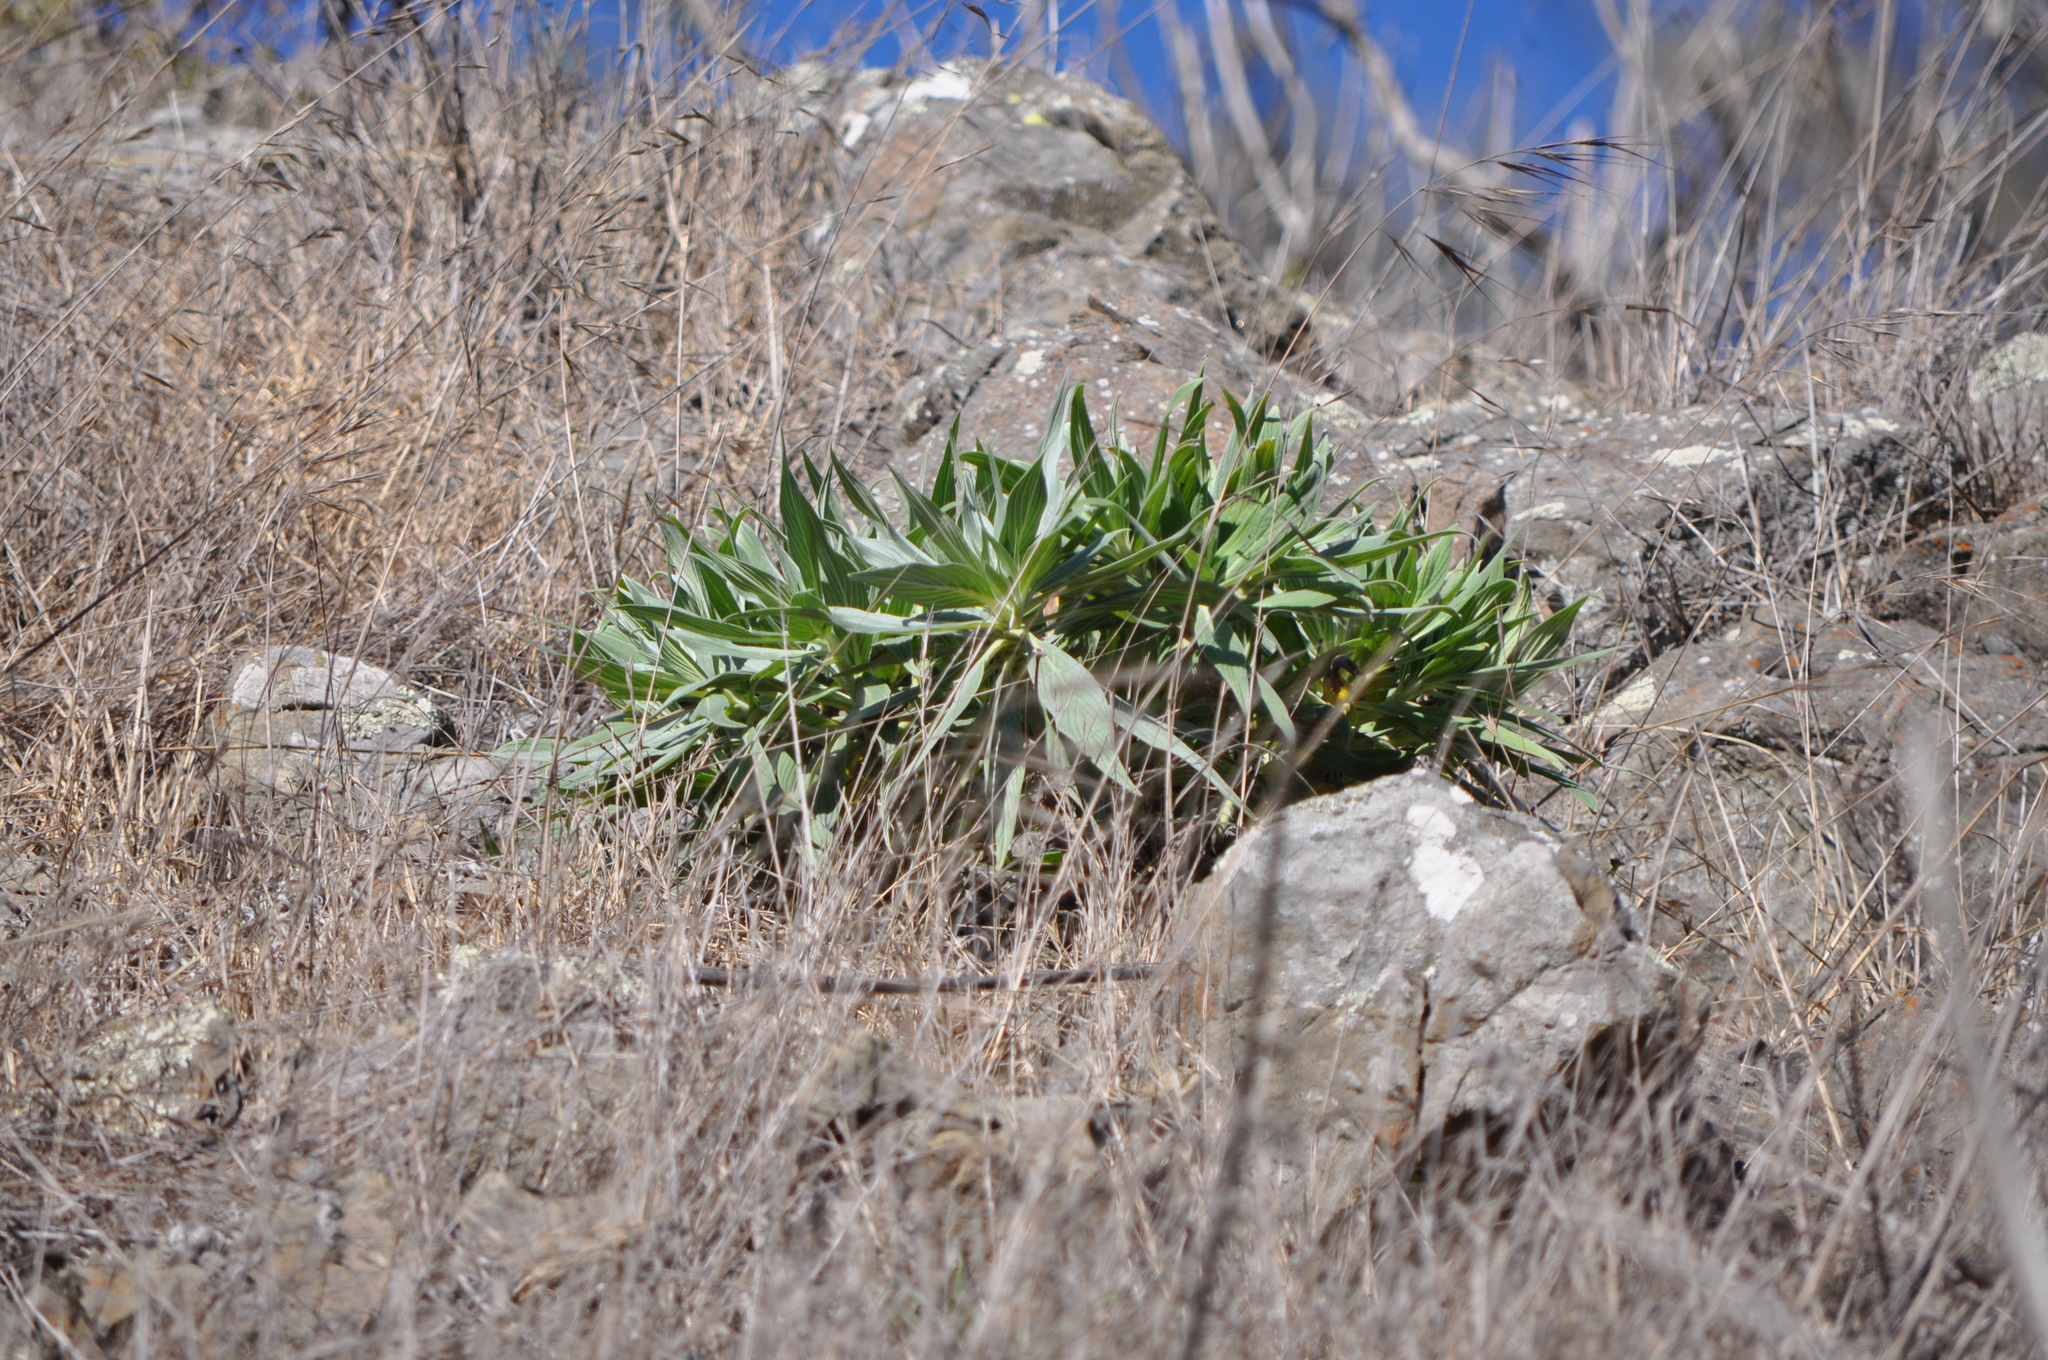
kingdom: Plantae
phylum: Tracheophyta
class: Magnoliopsida
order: Boraginales
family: Boraginaceae
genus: Echium
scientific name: Echium candicans
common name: Pride of madeira
